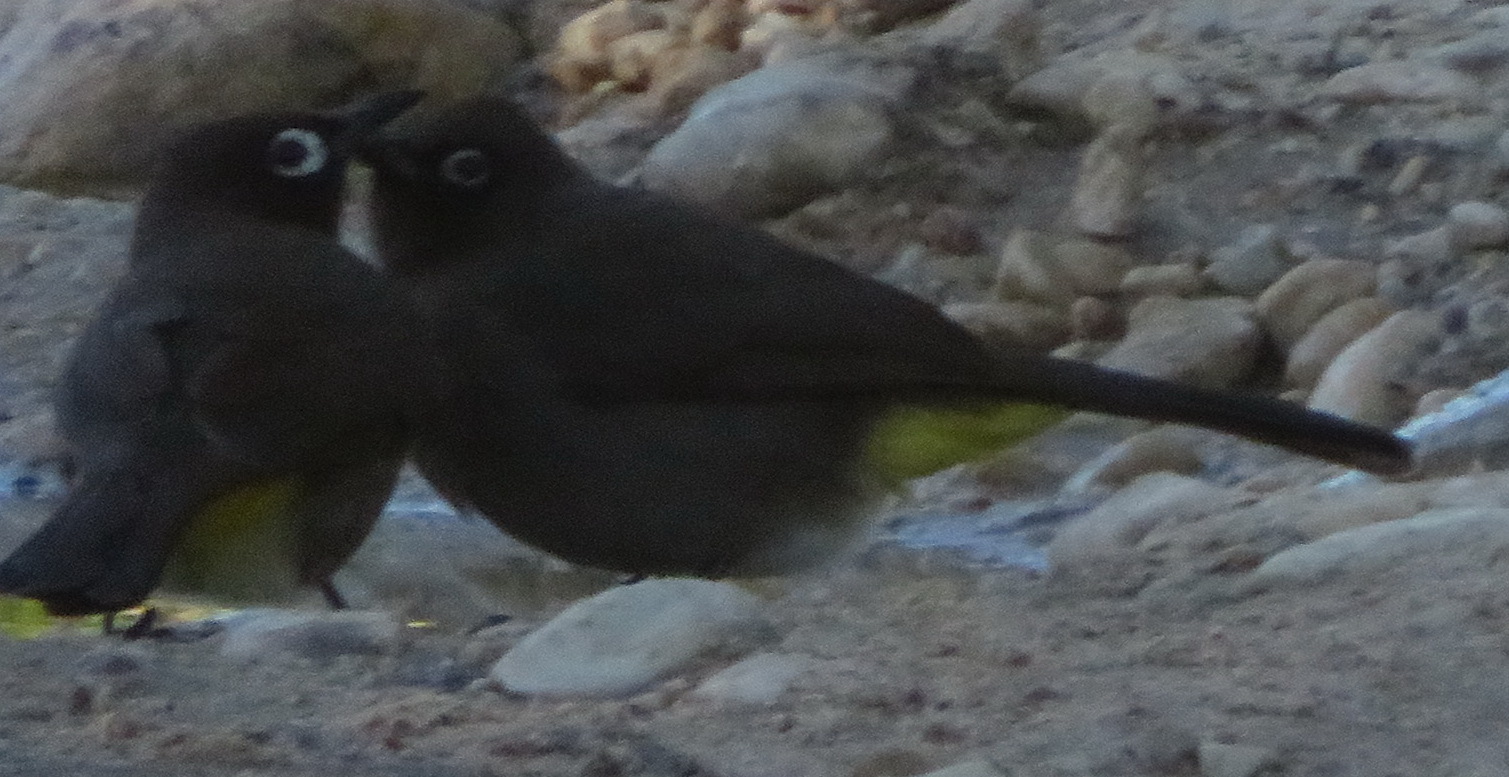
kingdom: Animalia
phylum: Chordata
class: Aves
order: Passeriformes
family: Pycnonotidae
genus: Pycnonotus
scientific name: Pycnonotus capensis
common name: Cape bulbul
